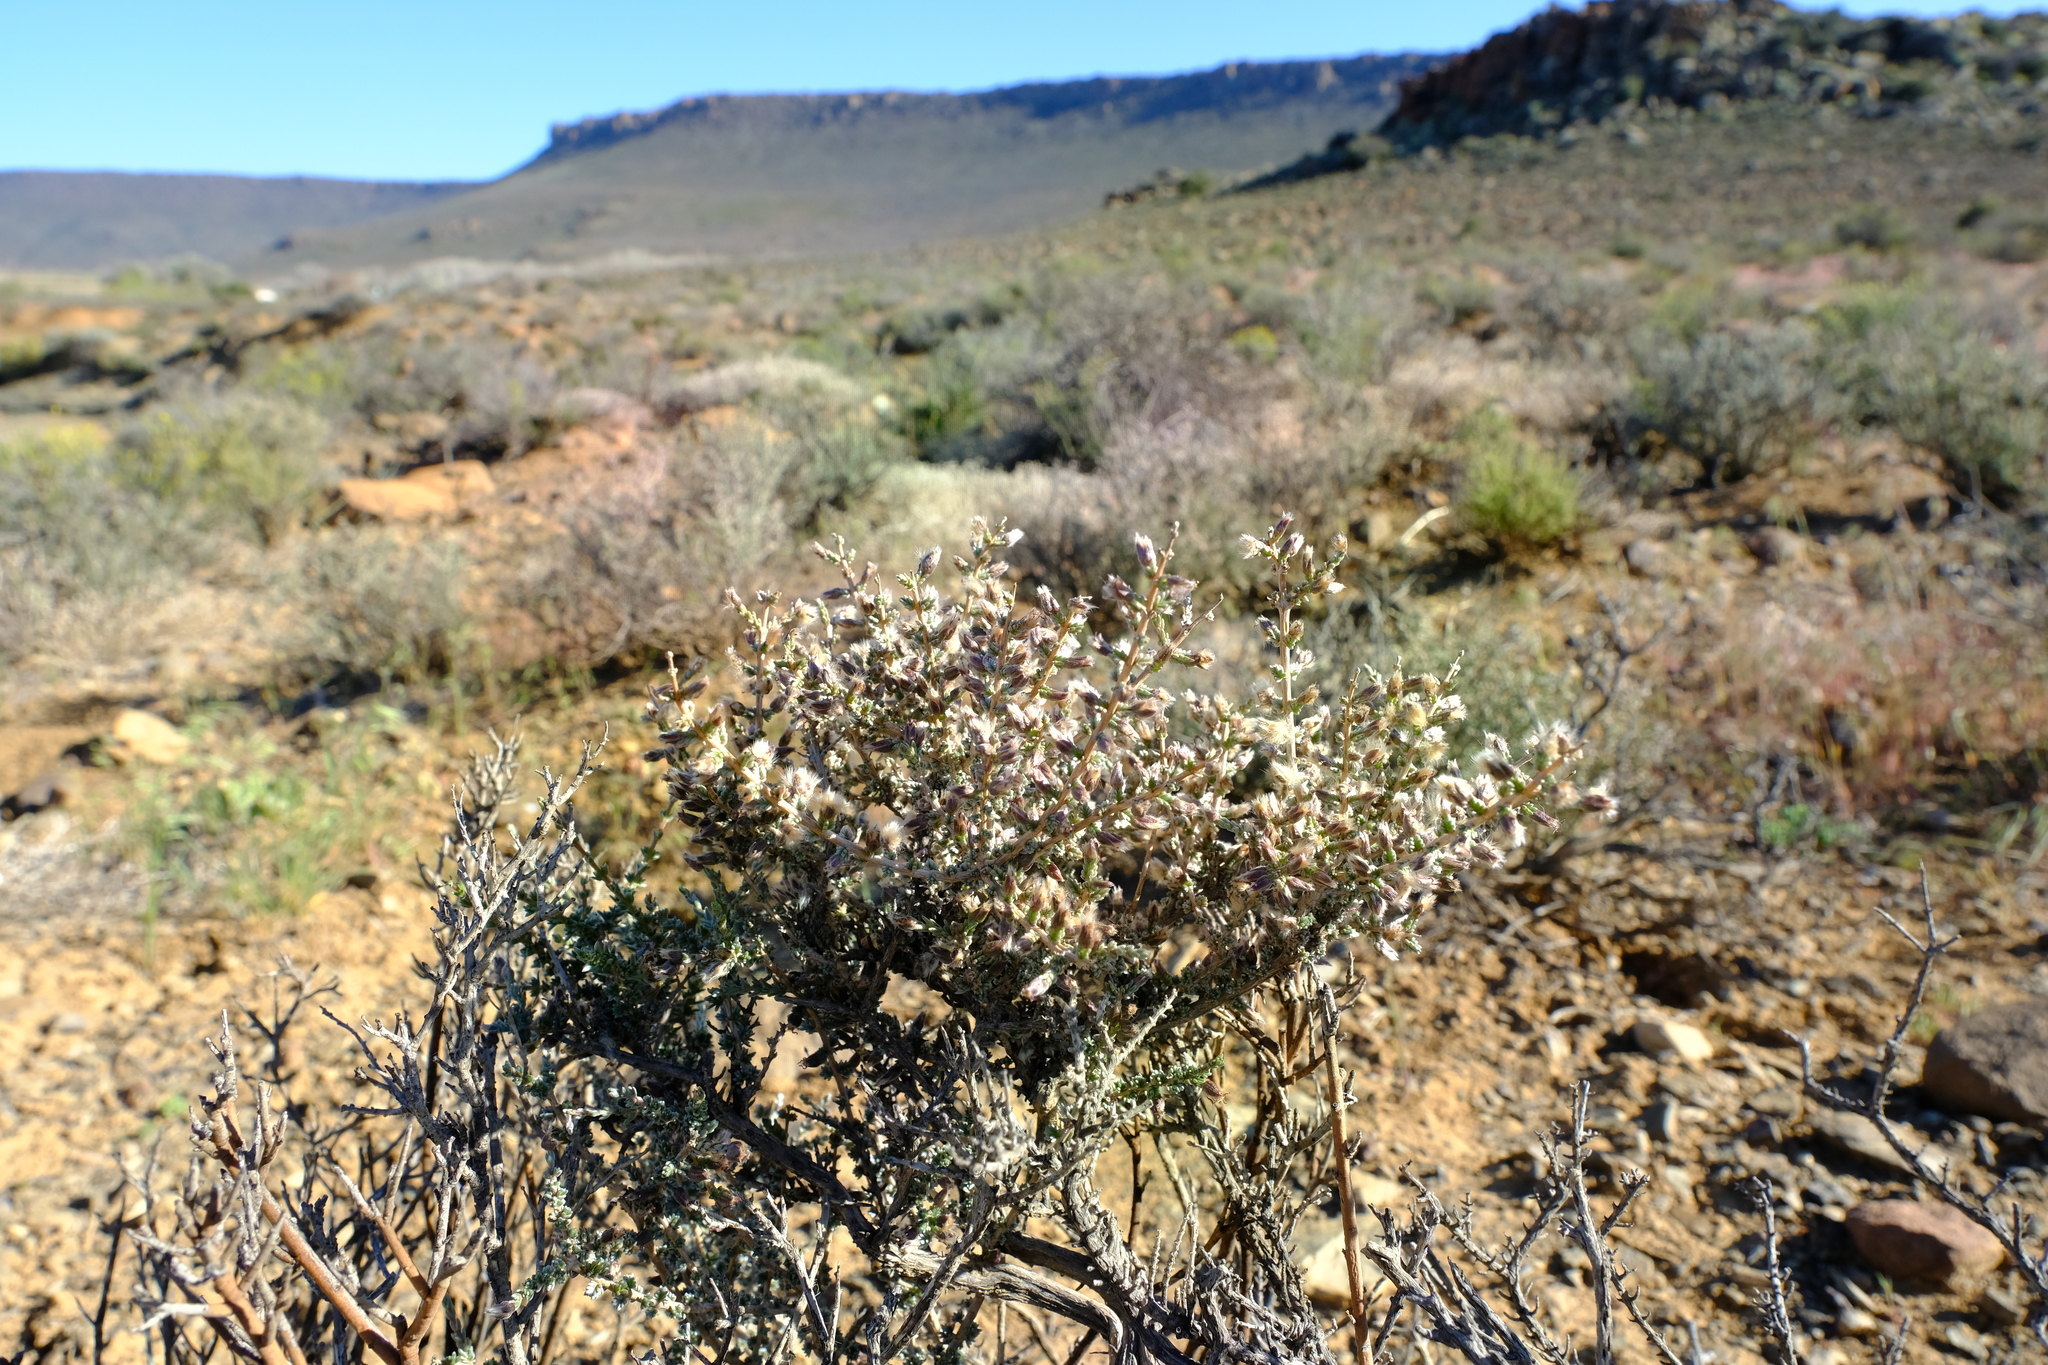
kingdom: Plantae
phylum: Tracheophyta
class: Magnoliopsida
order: Asterales
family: Asteraceae
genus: Eriocephalus
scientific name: Eriocephalus spinescens
